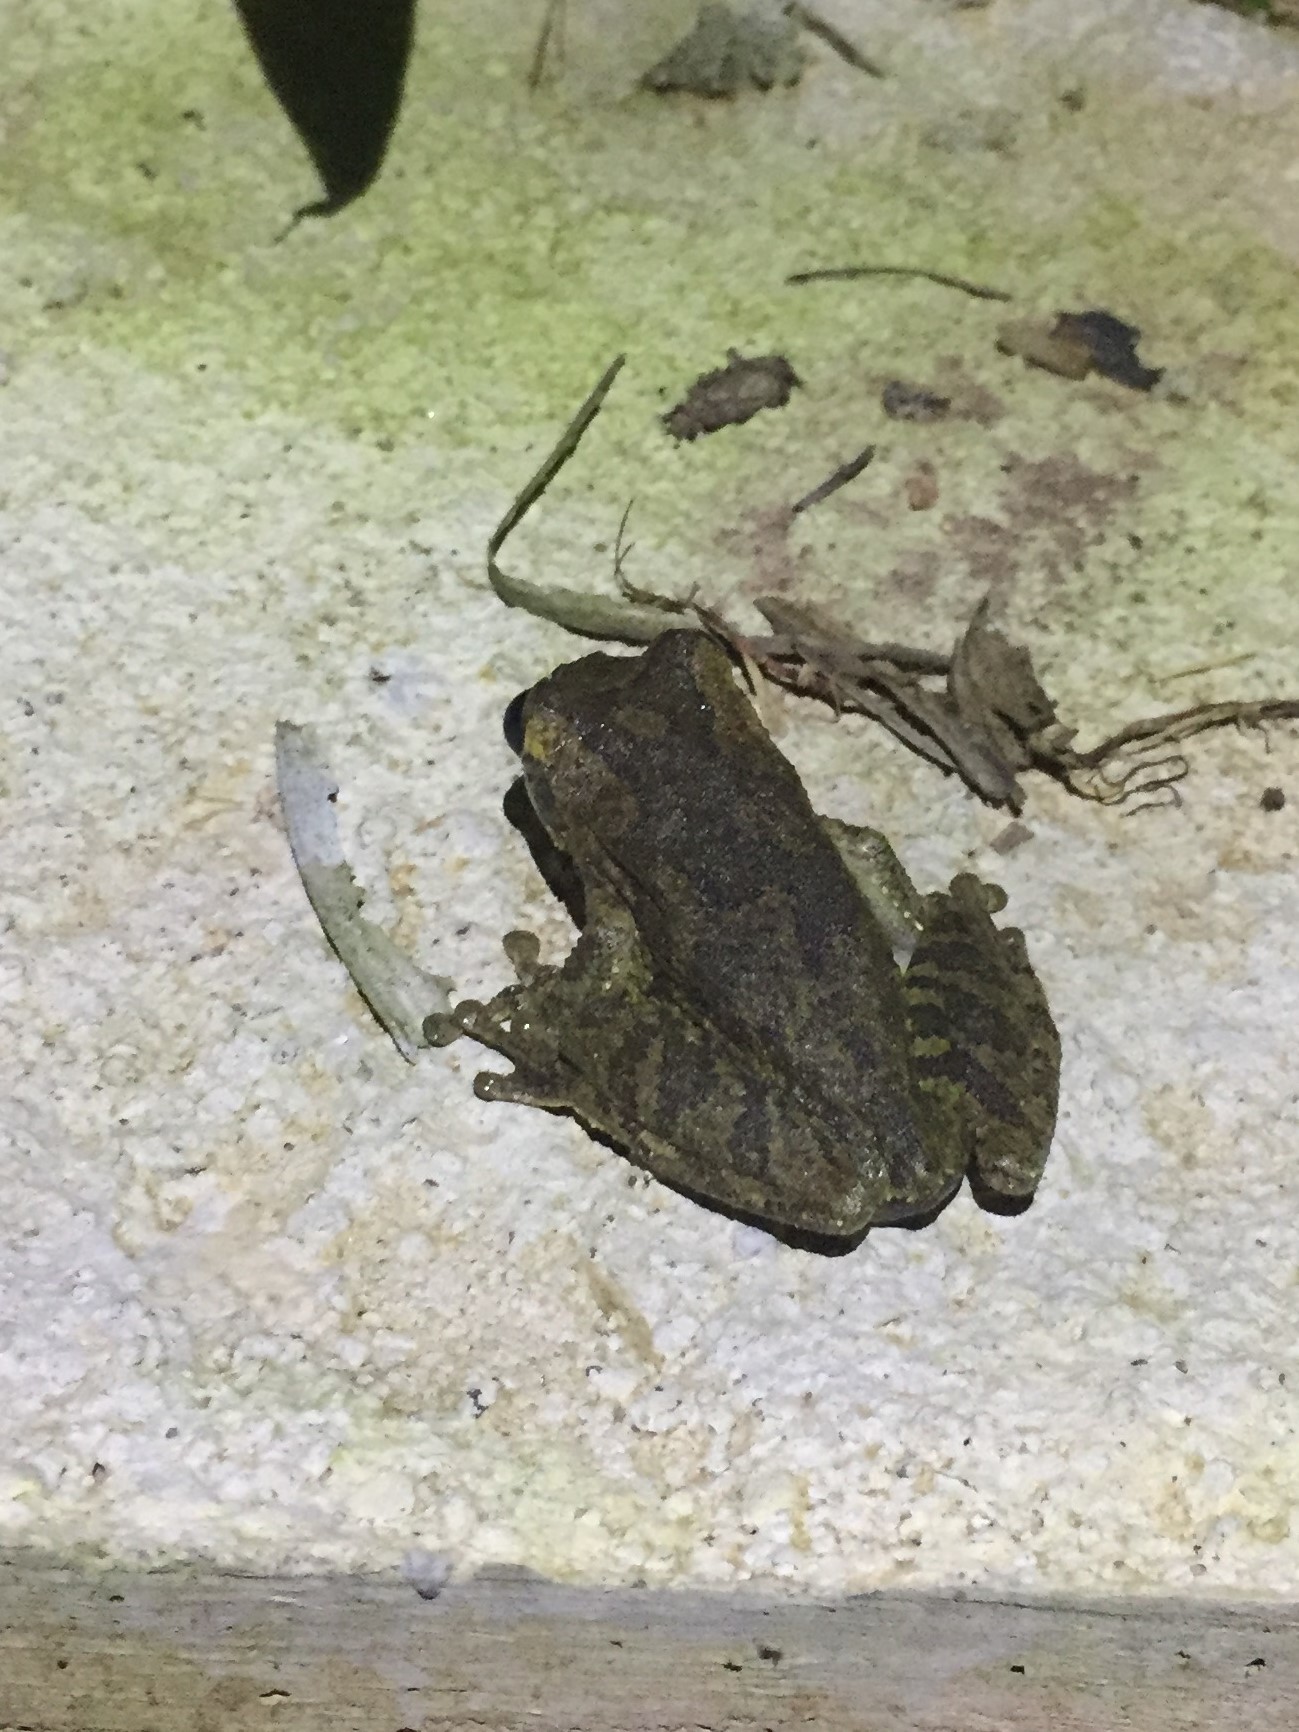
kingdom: Animalia
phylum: Chordata
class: Amphibia
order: Anura
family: Hylidae
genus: Smilisca
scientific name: Smilisca baudinii
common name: Mexican smilisca
